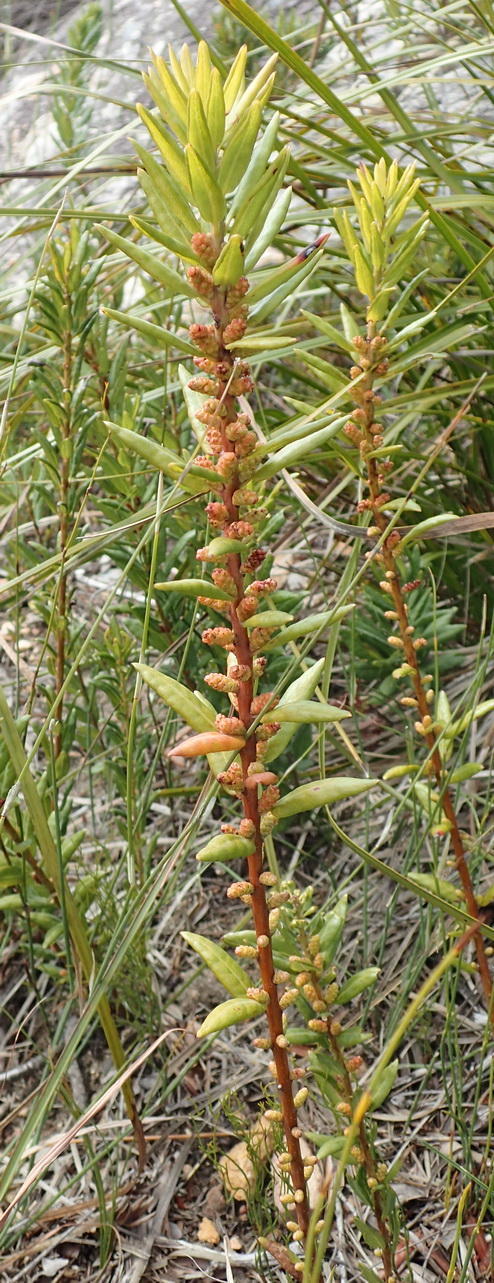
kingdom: Plantae
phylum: Tracheophyta
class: Magnoliopsida
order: Fagales
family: Myricaceae
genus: Morella
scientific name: Morella humilis
